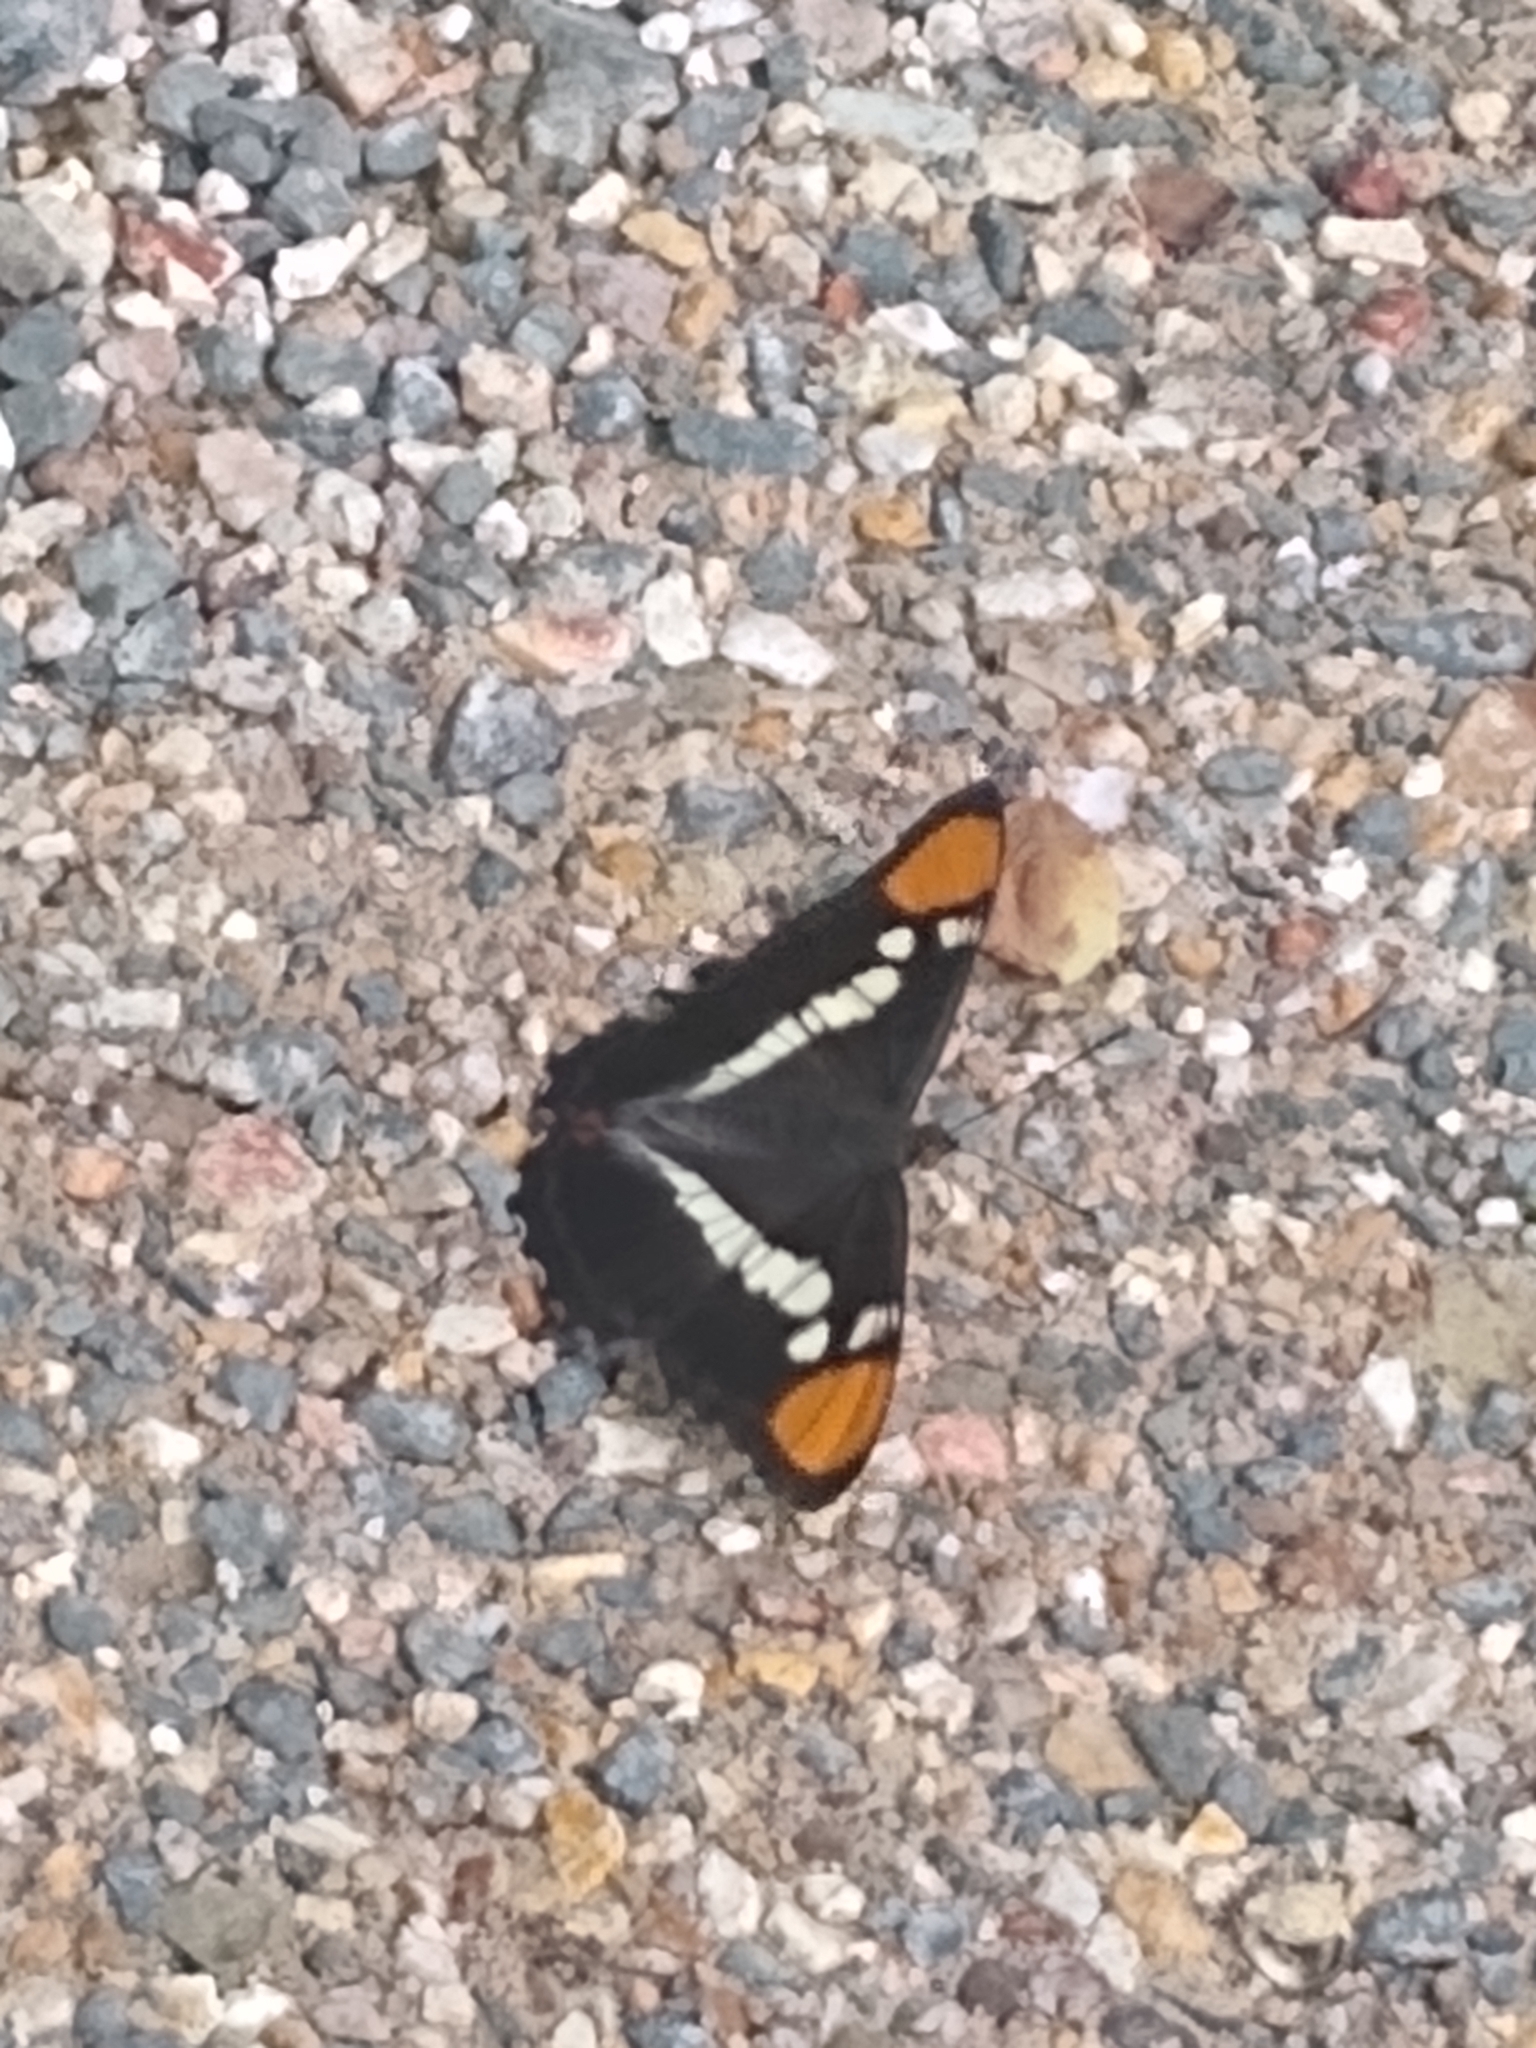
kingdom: Animalia
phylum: Arthropoda
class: Insecta
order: Lepidoptera
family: Nymphalidae
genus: Limenitis
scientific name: Limenitis bredowii
